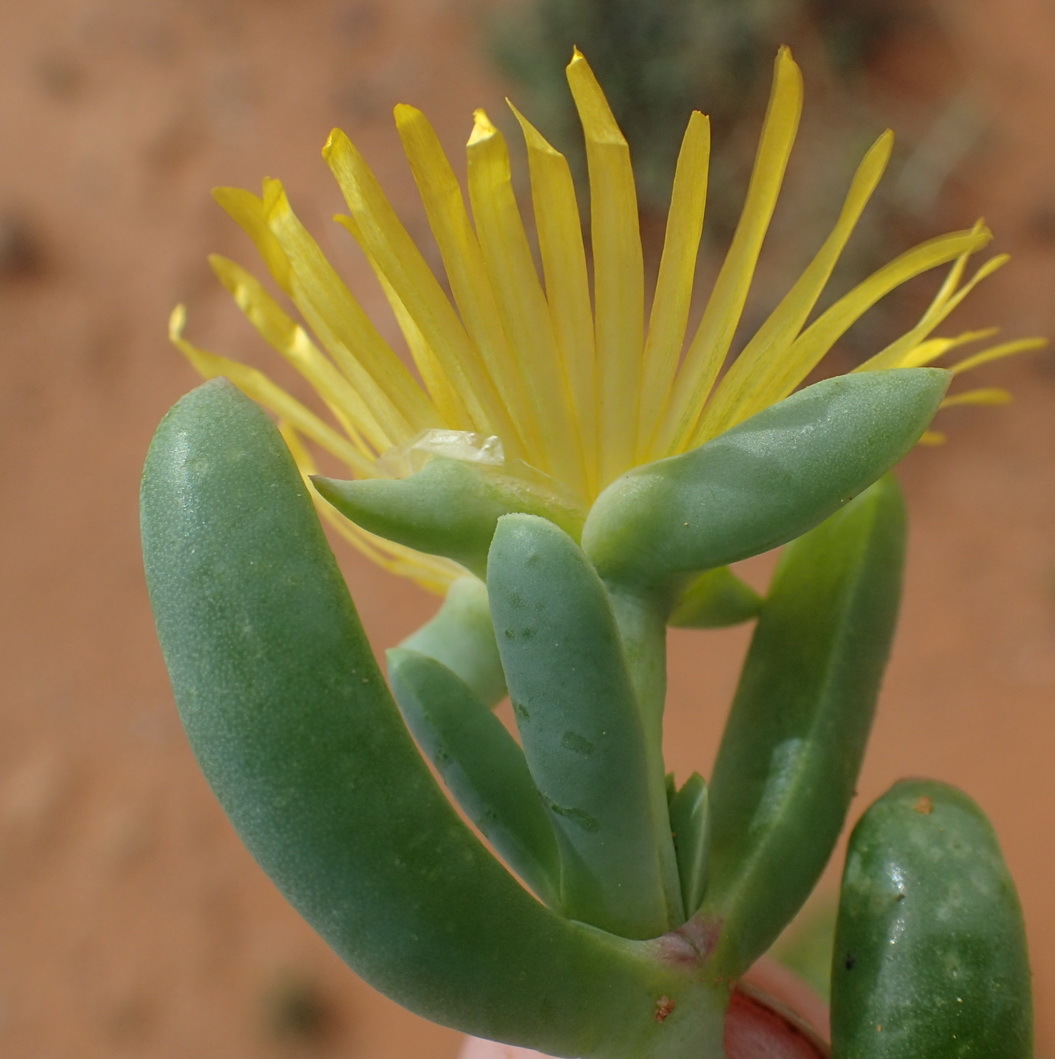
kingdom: Plantae
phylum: Tracheophyta
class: Magnoliopsida
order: Caryophyllales
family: Aizoaceae
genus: Malephora
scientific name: Malephora uitenhagensis
